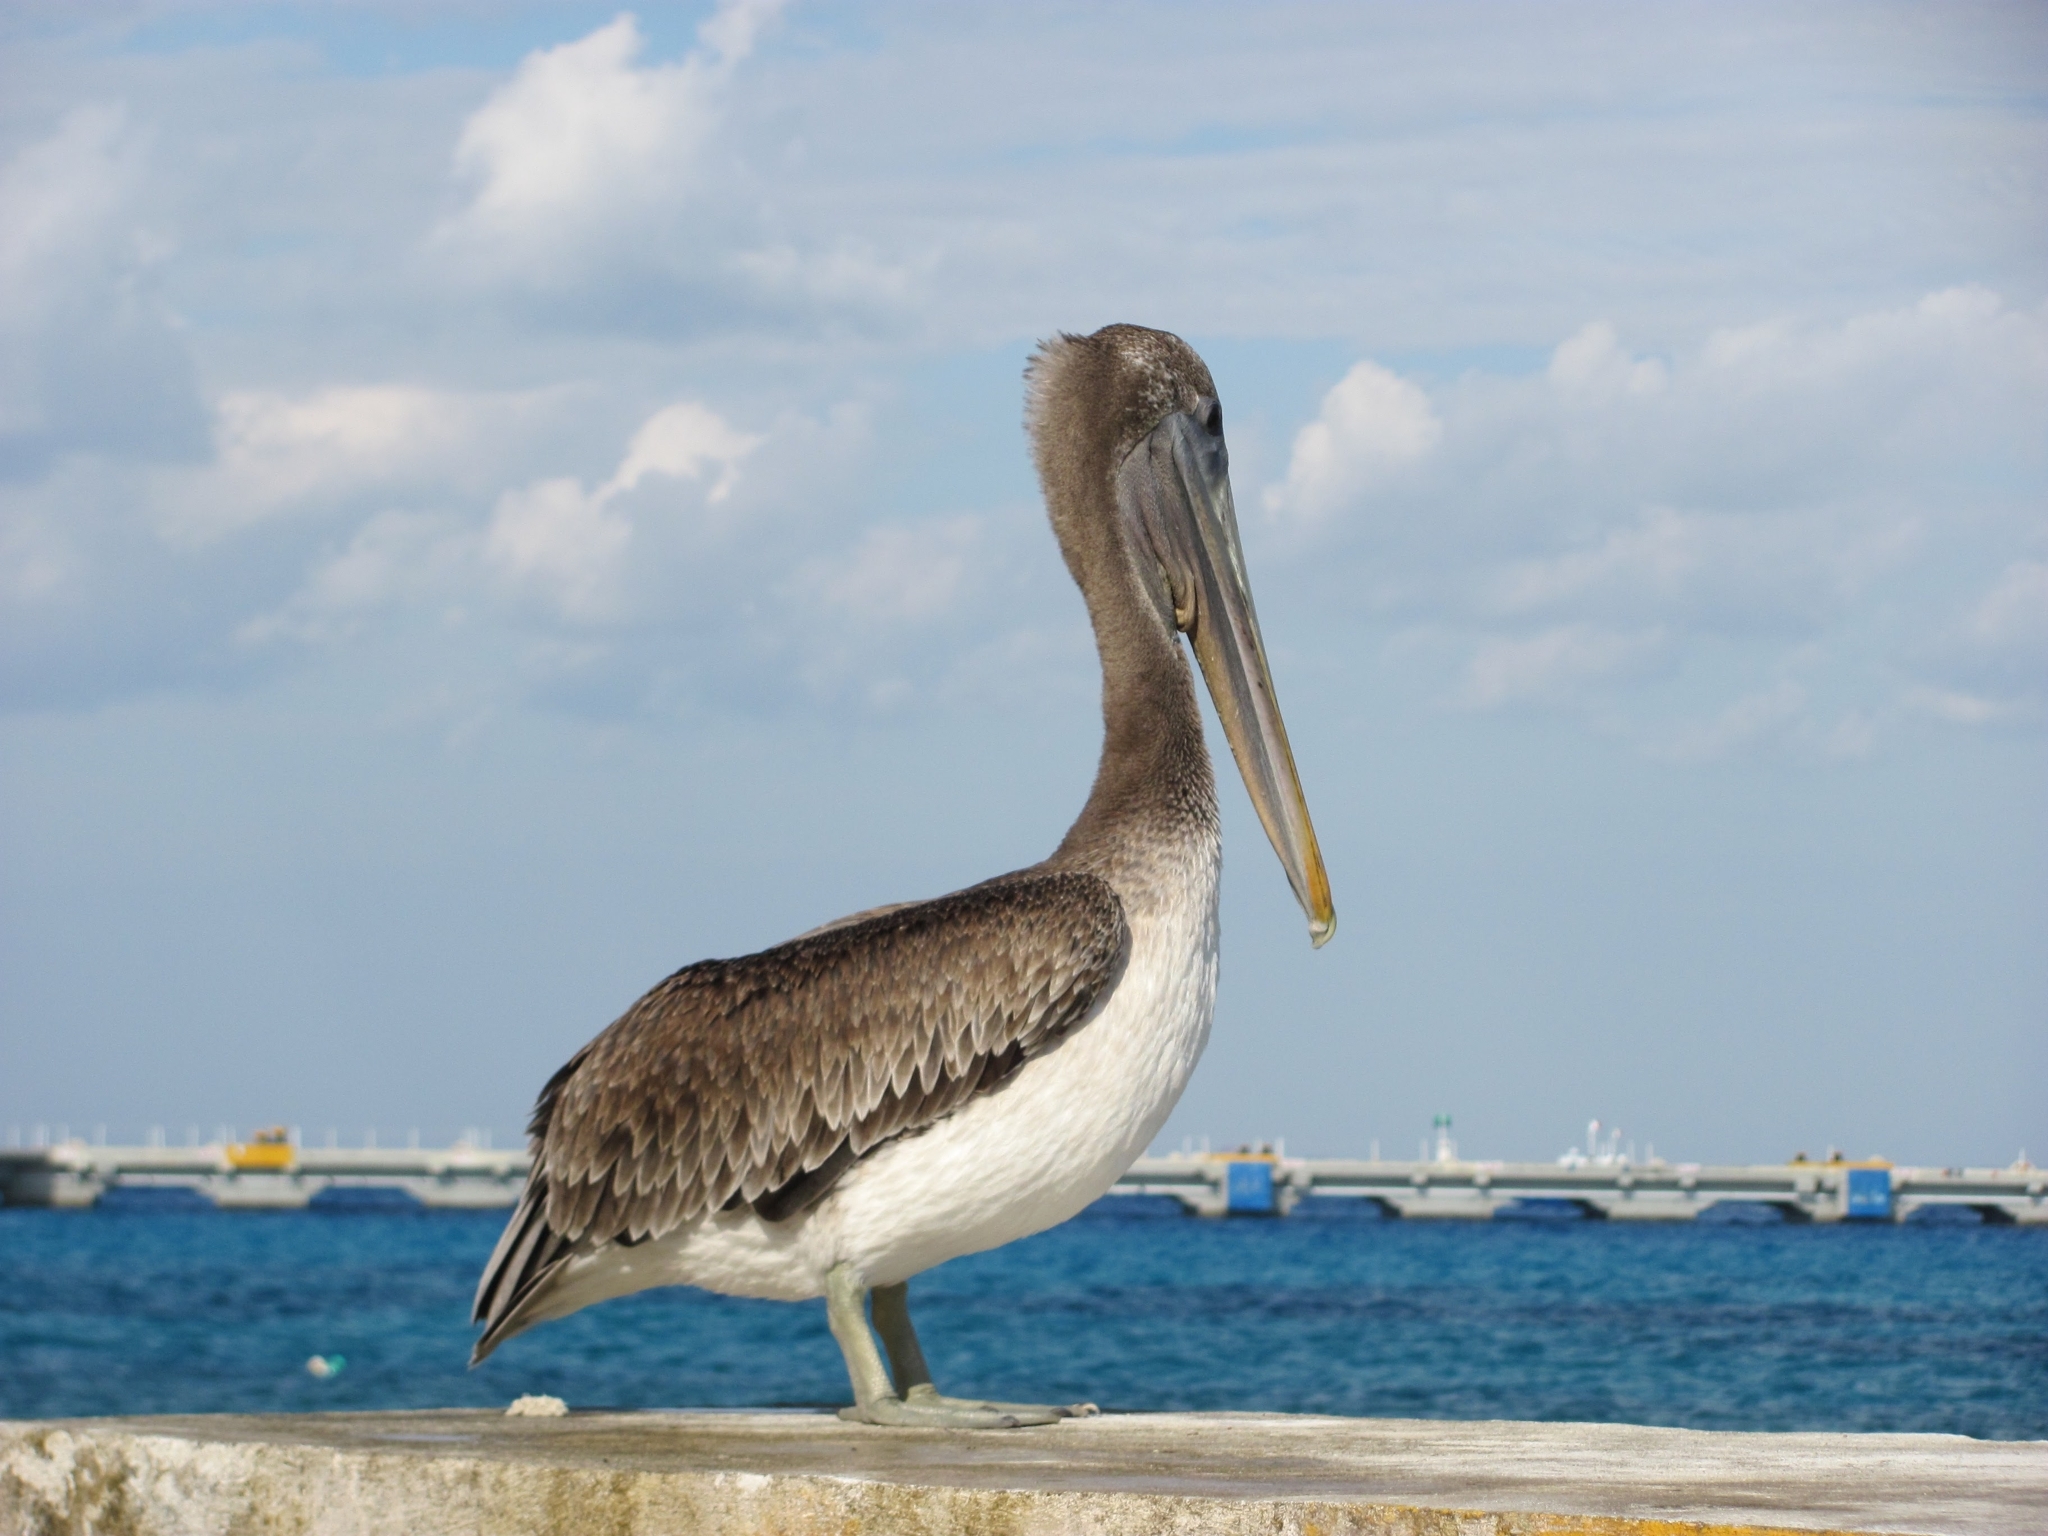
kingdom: Animalia
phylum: Chordata
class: Aves
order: Pelecaniformes
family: Pelecanidae
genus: Pelecanus
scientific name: Pelecanus occidentalis
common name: Brown pelican
